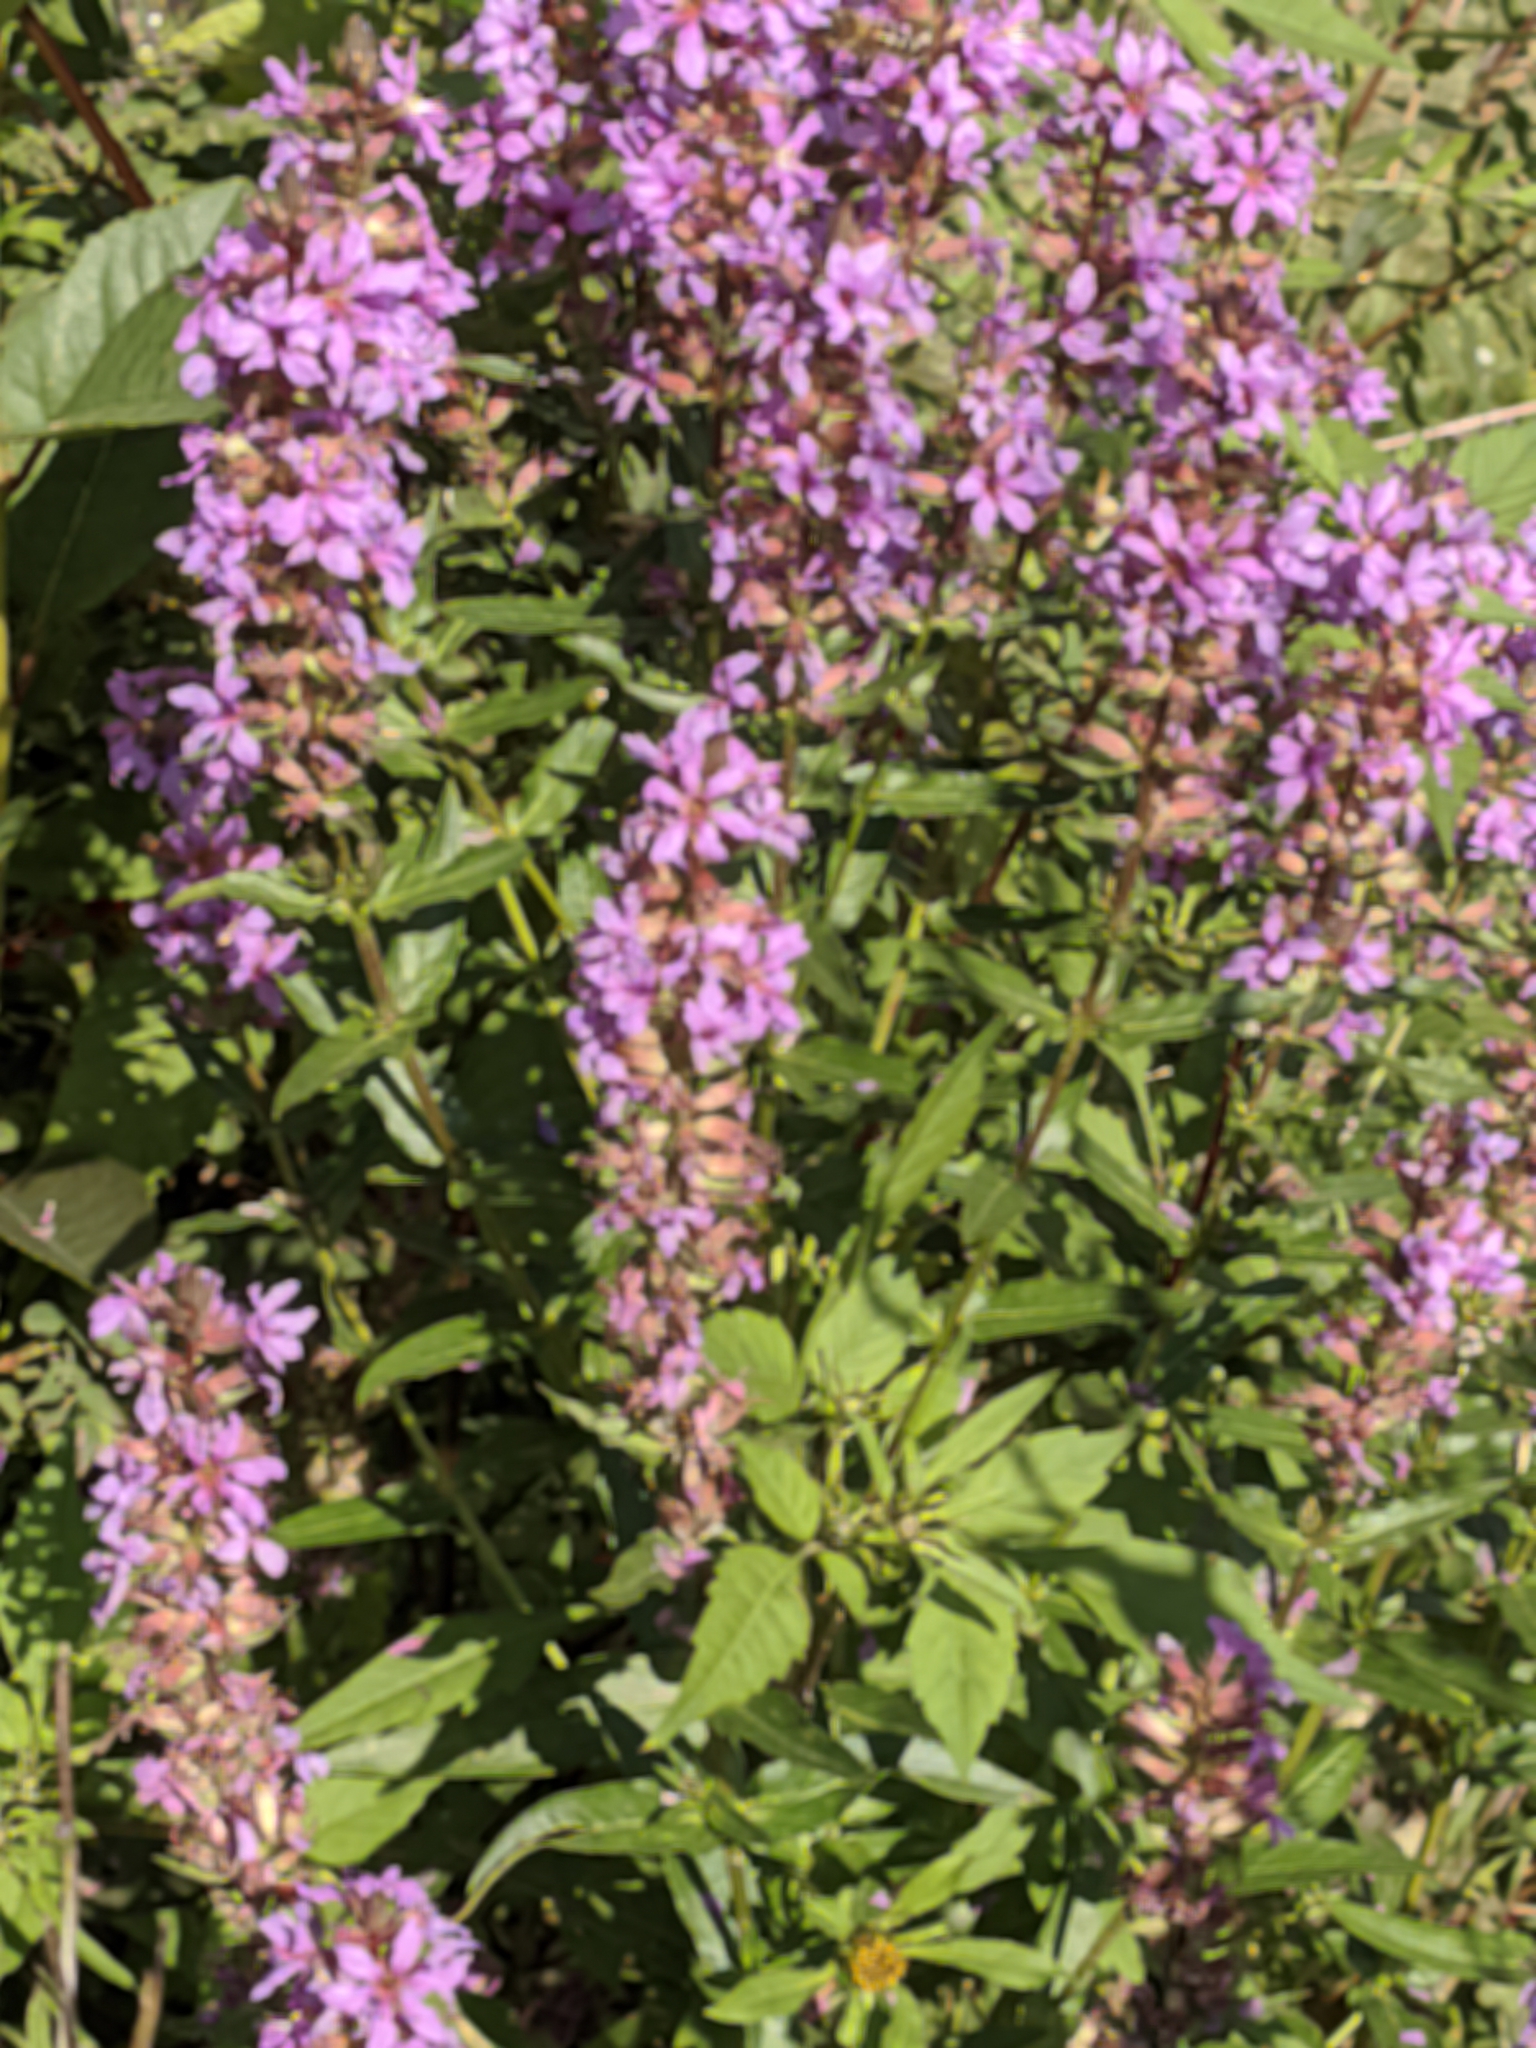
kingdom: Plantae
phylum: Tracheophyta
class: Magnoliopsida
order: Myrtales
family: Lythraceae
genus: Lythrum
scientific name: Lythrum salicaria
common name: Purple loosestrife
